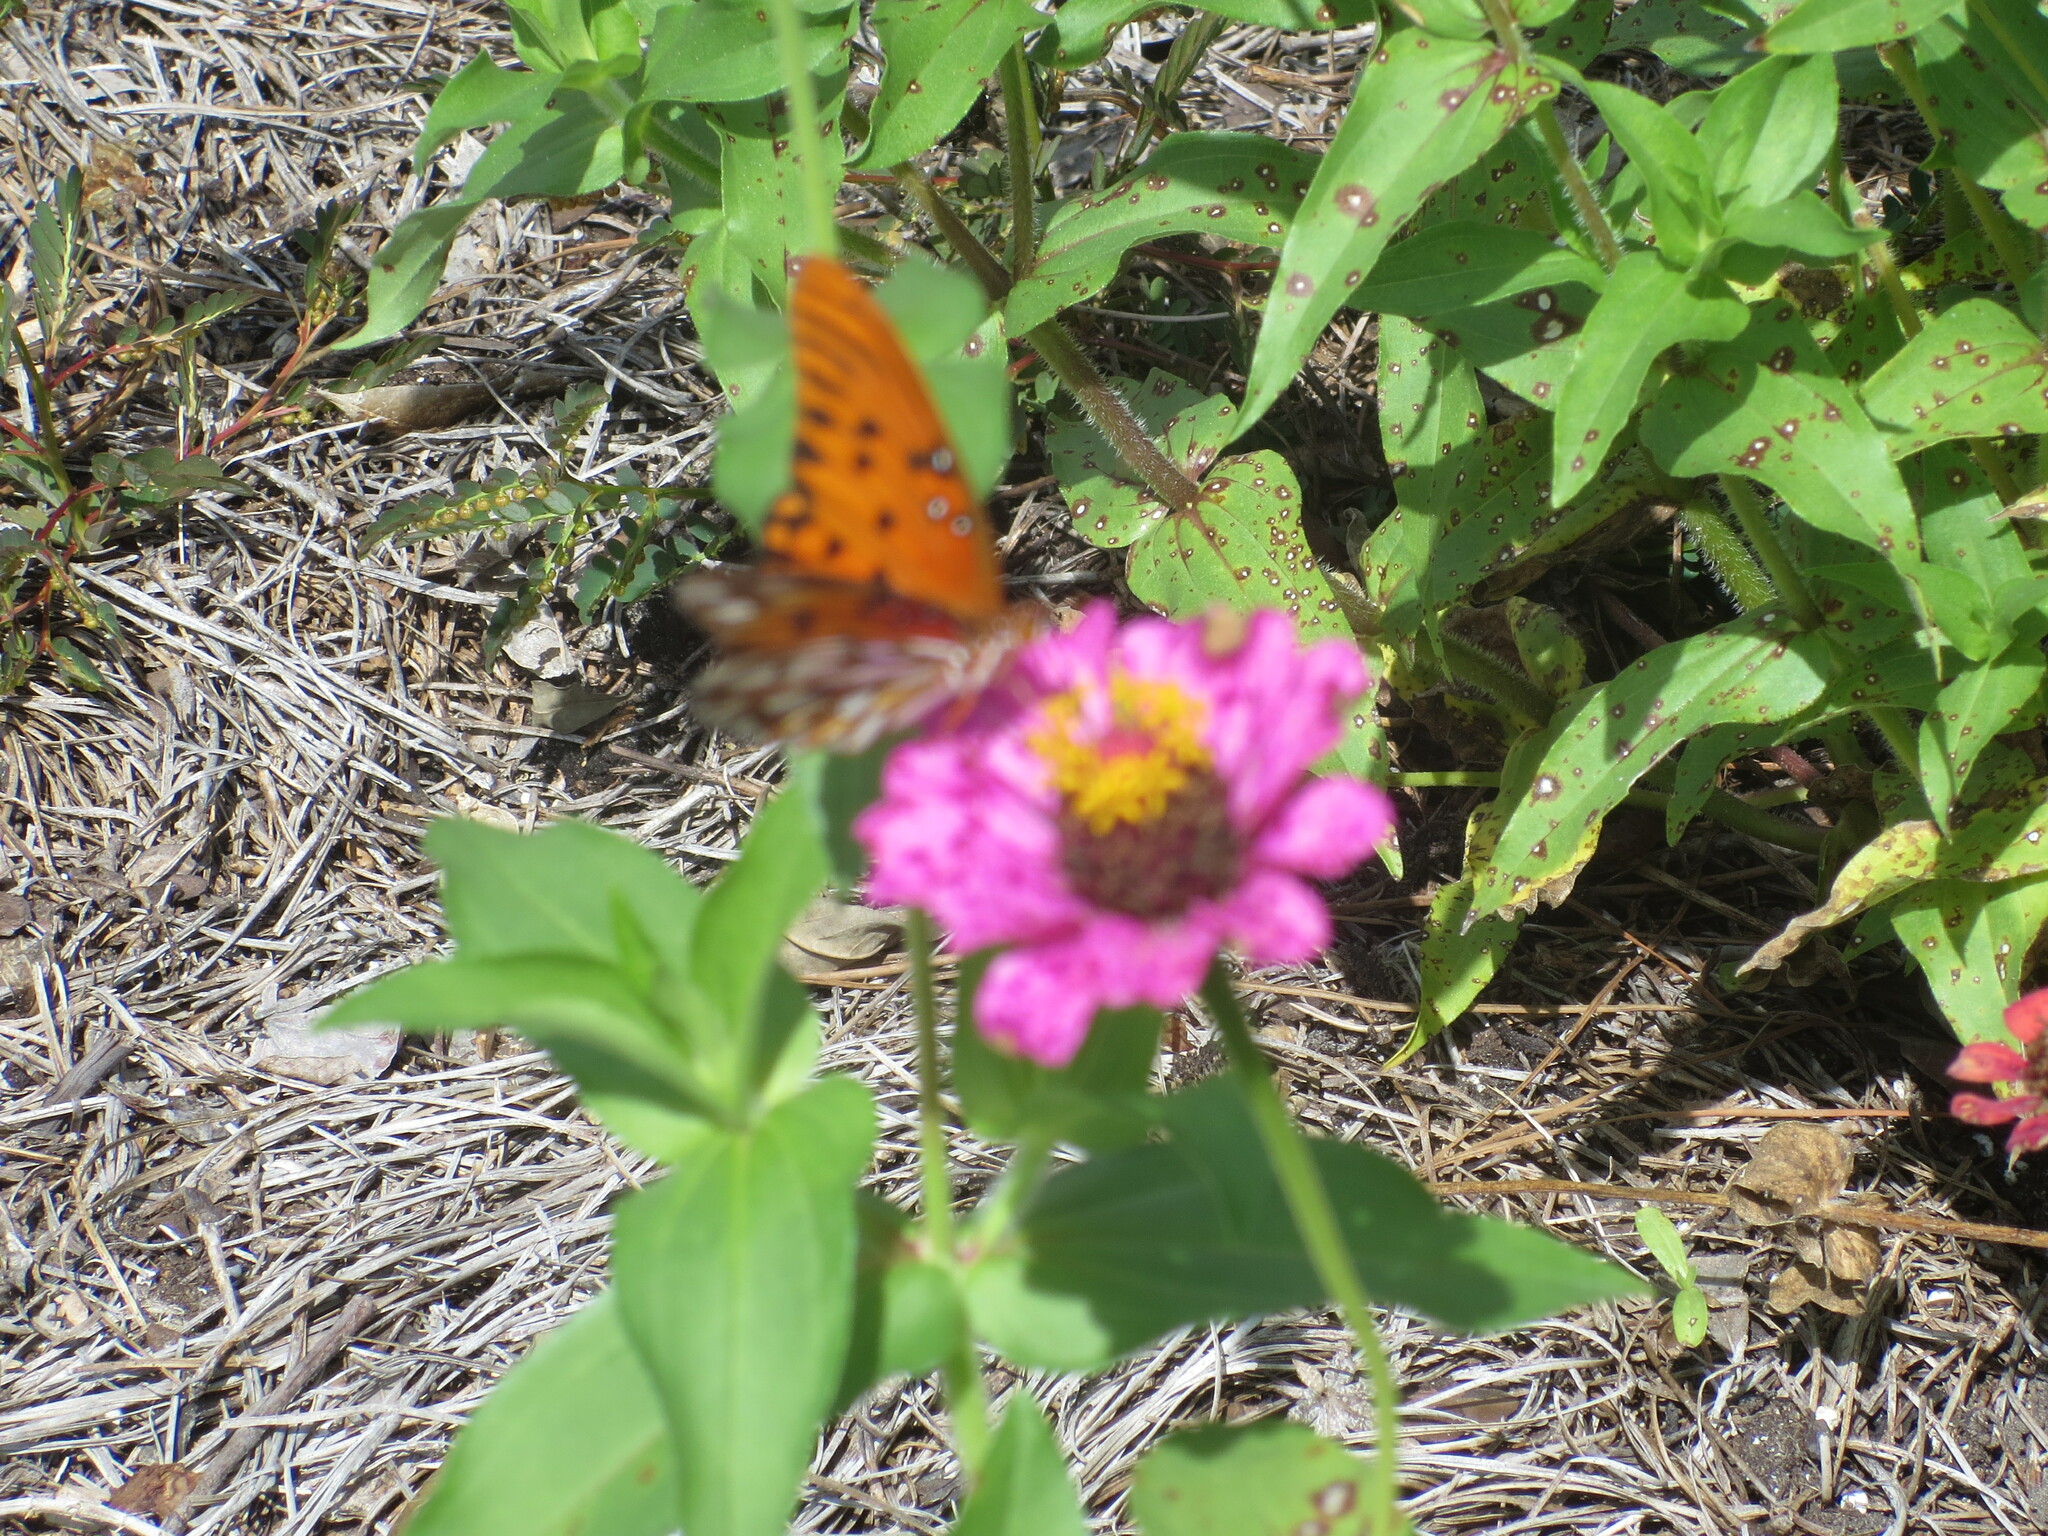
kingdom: Animalia
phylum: Arthropoda
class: Insecta
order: Lepidoptera
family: Nymphalidae
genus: Dione
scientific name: Dione vanillae
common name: Gulf fritillary
